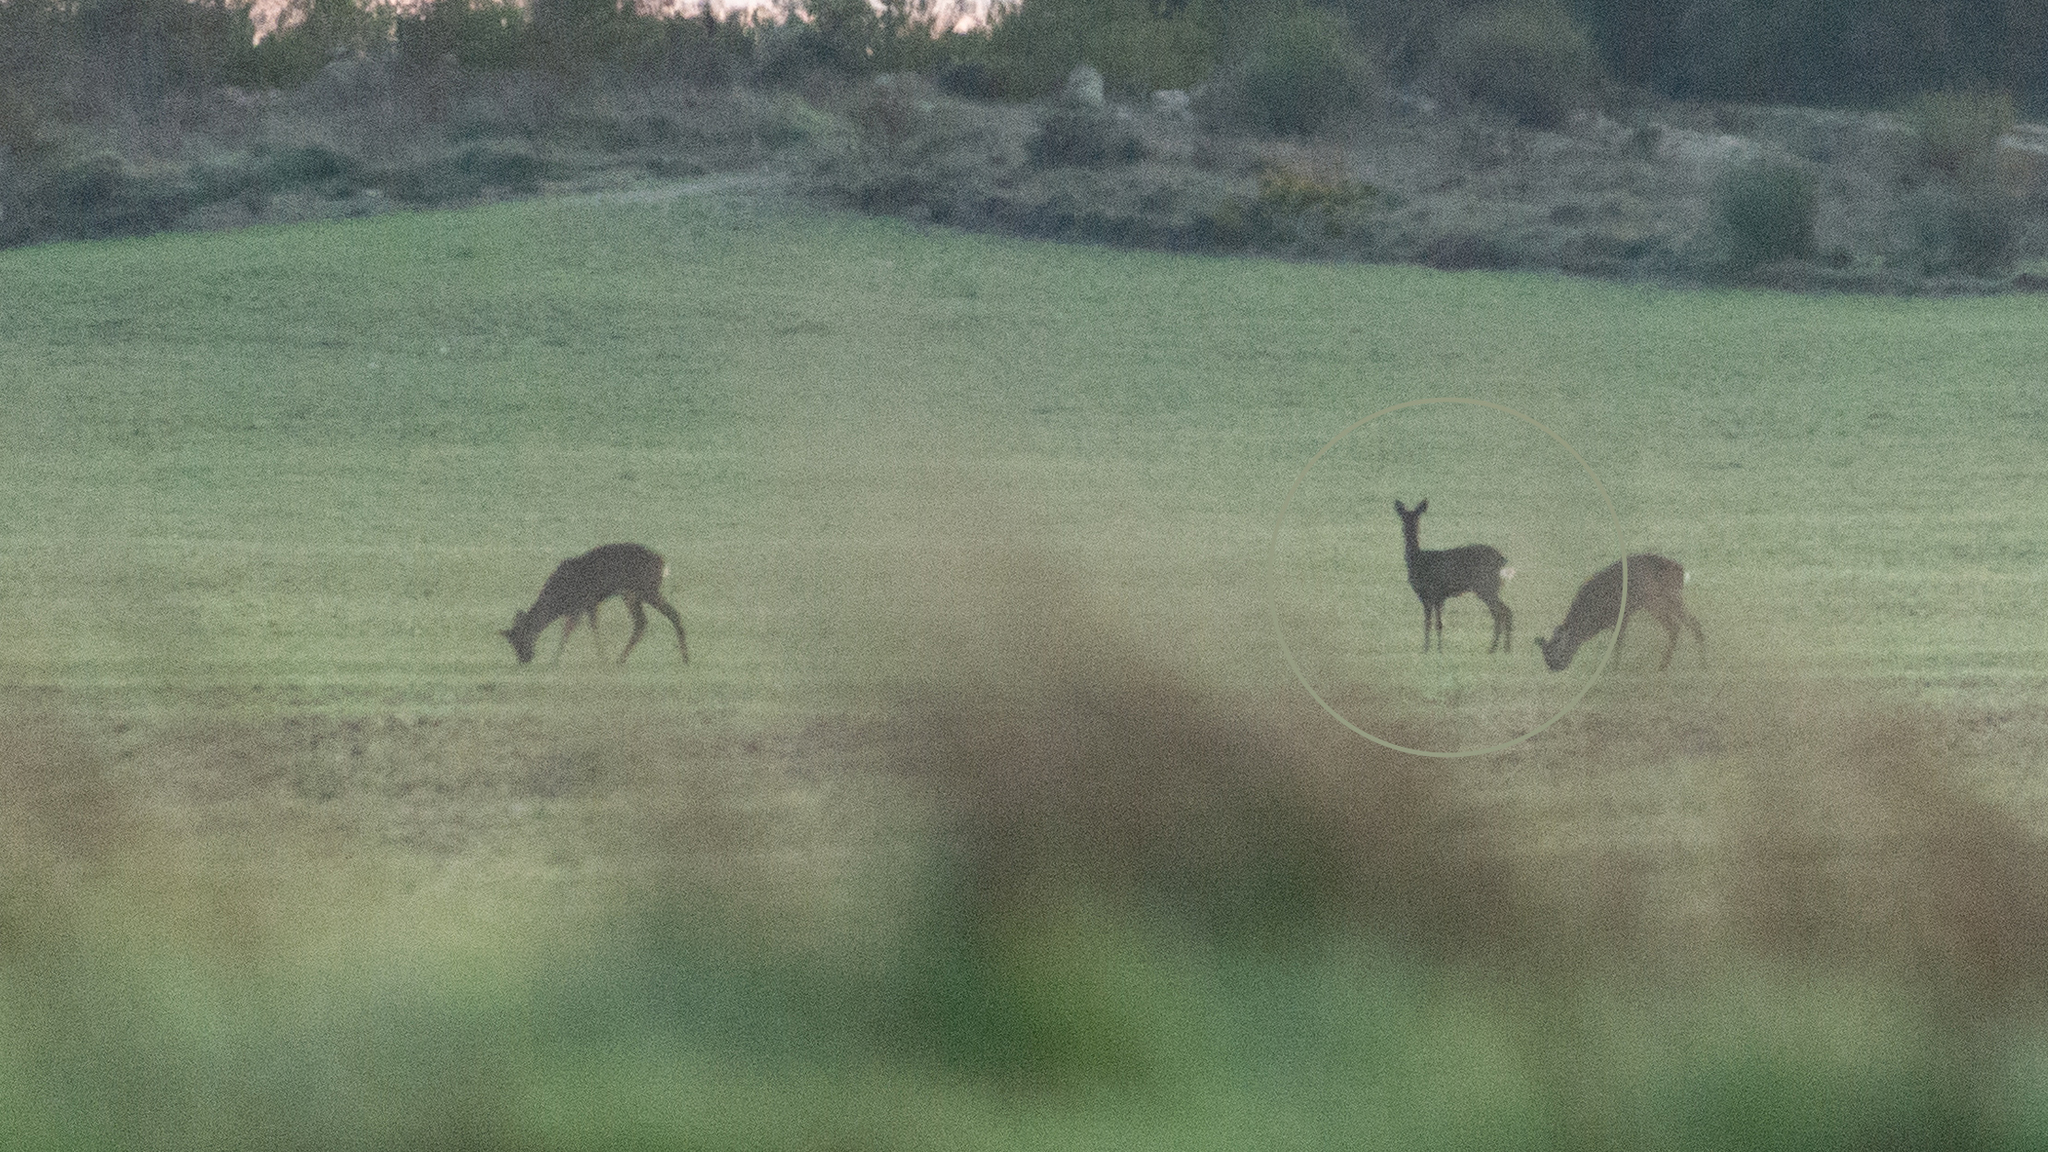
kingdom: Animalia
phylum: Chordata
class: Mammalia
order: Artiodactyla
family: Cervidae
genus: Capreolus
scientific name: Capreolus capreolus
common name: Western roe deer
